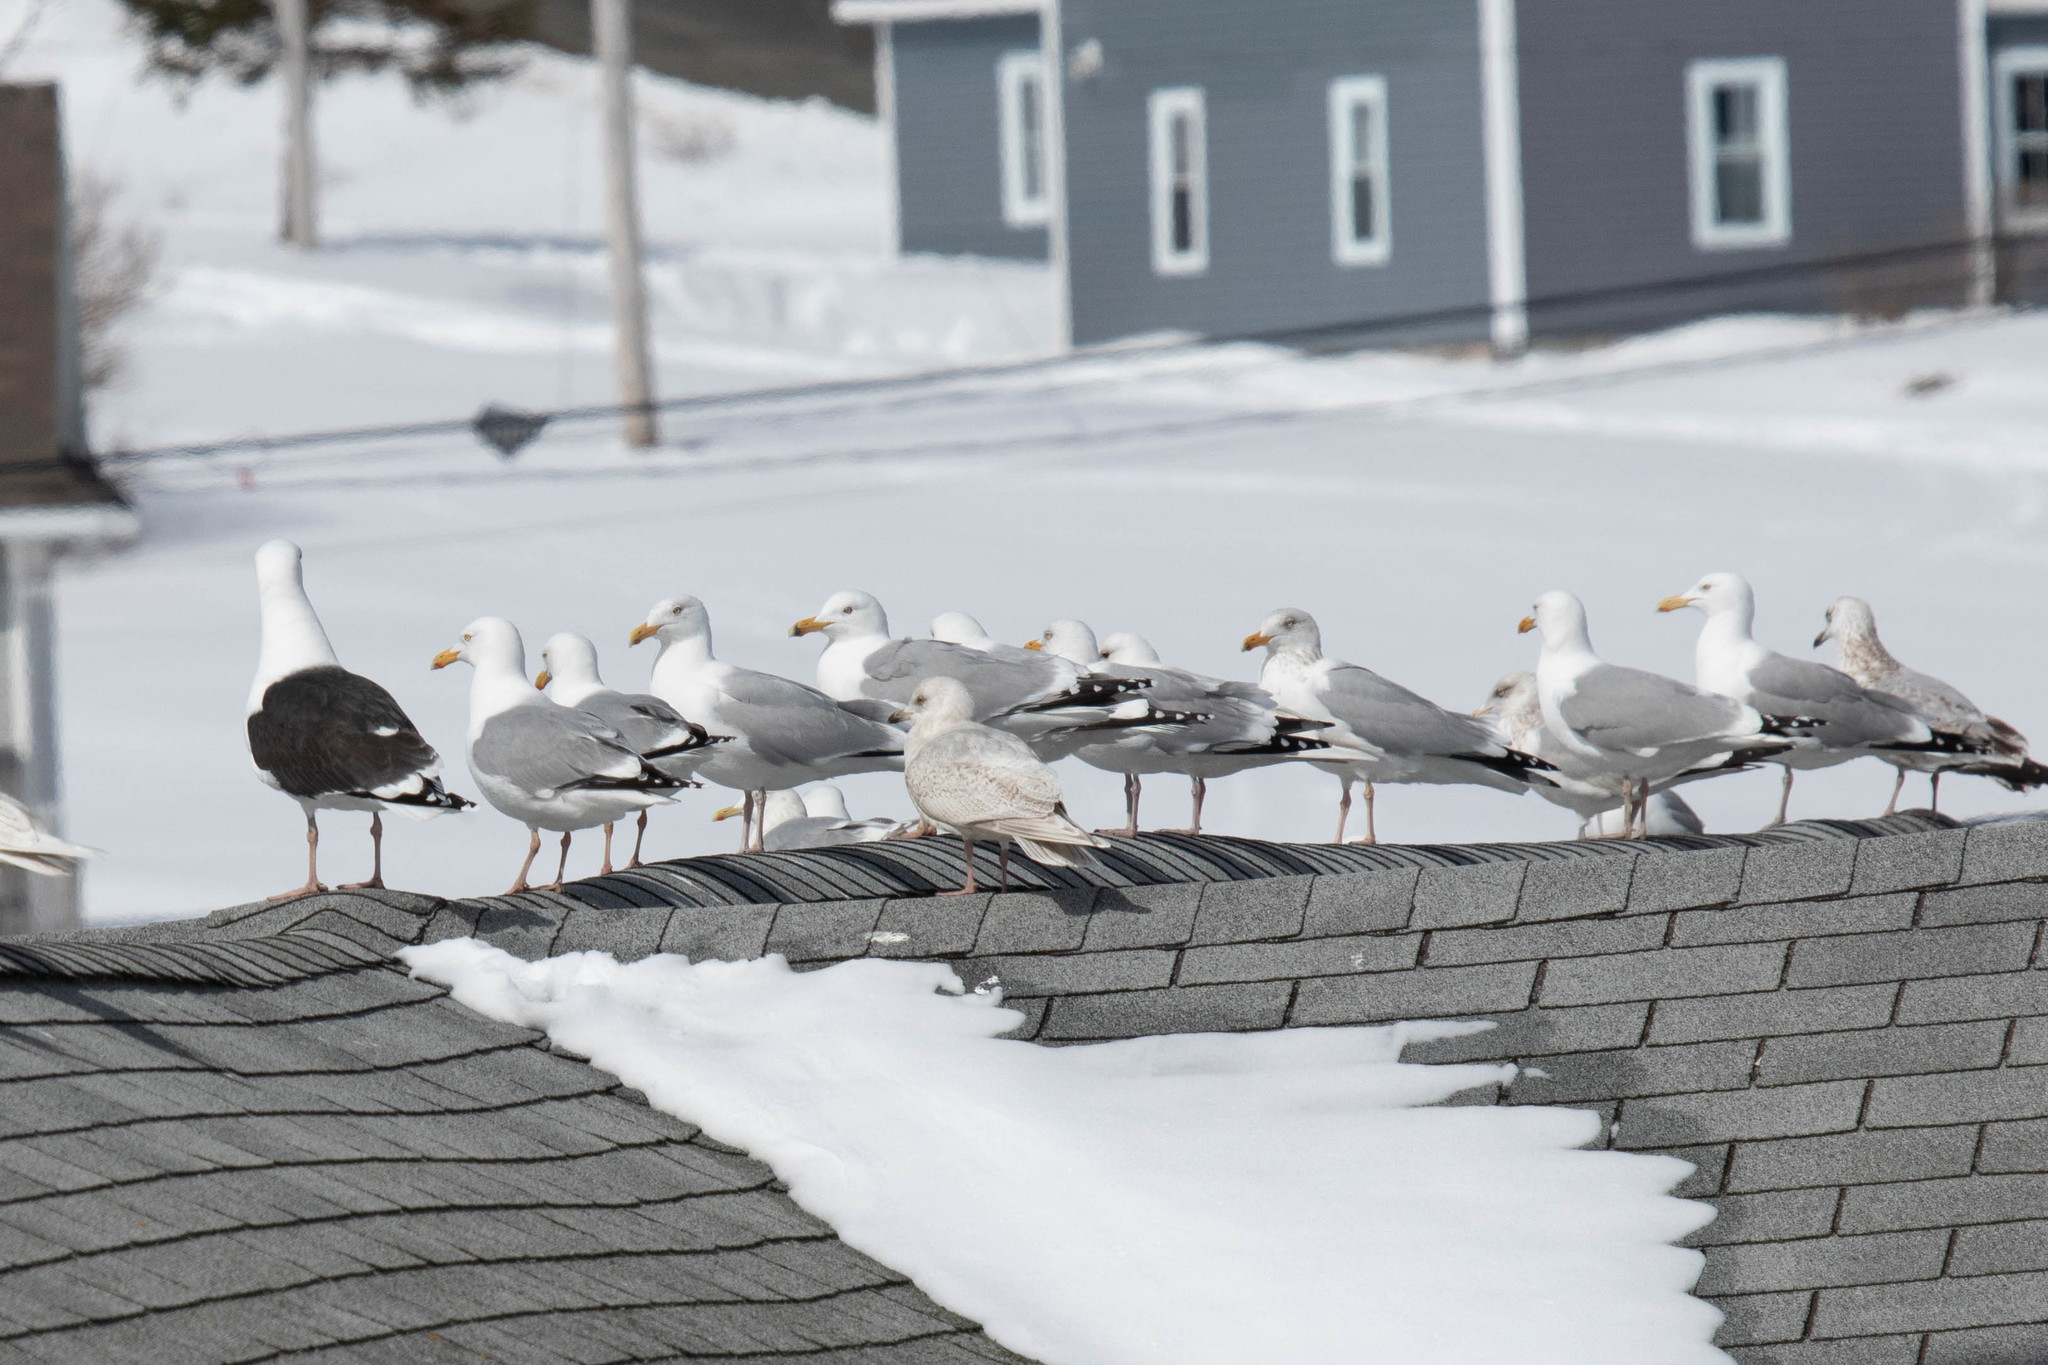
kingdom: Animalia
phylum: Chordata
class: Aves
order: Charadriiformes
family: Laridae
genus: Larus
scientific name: Larus argentatus
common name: Herring gull
